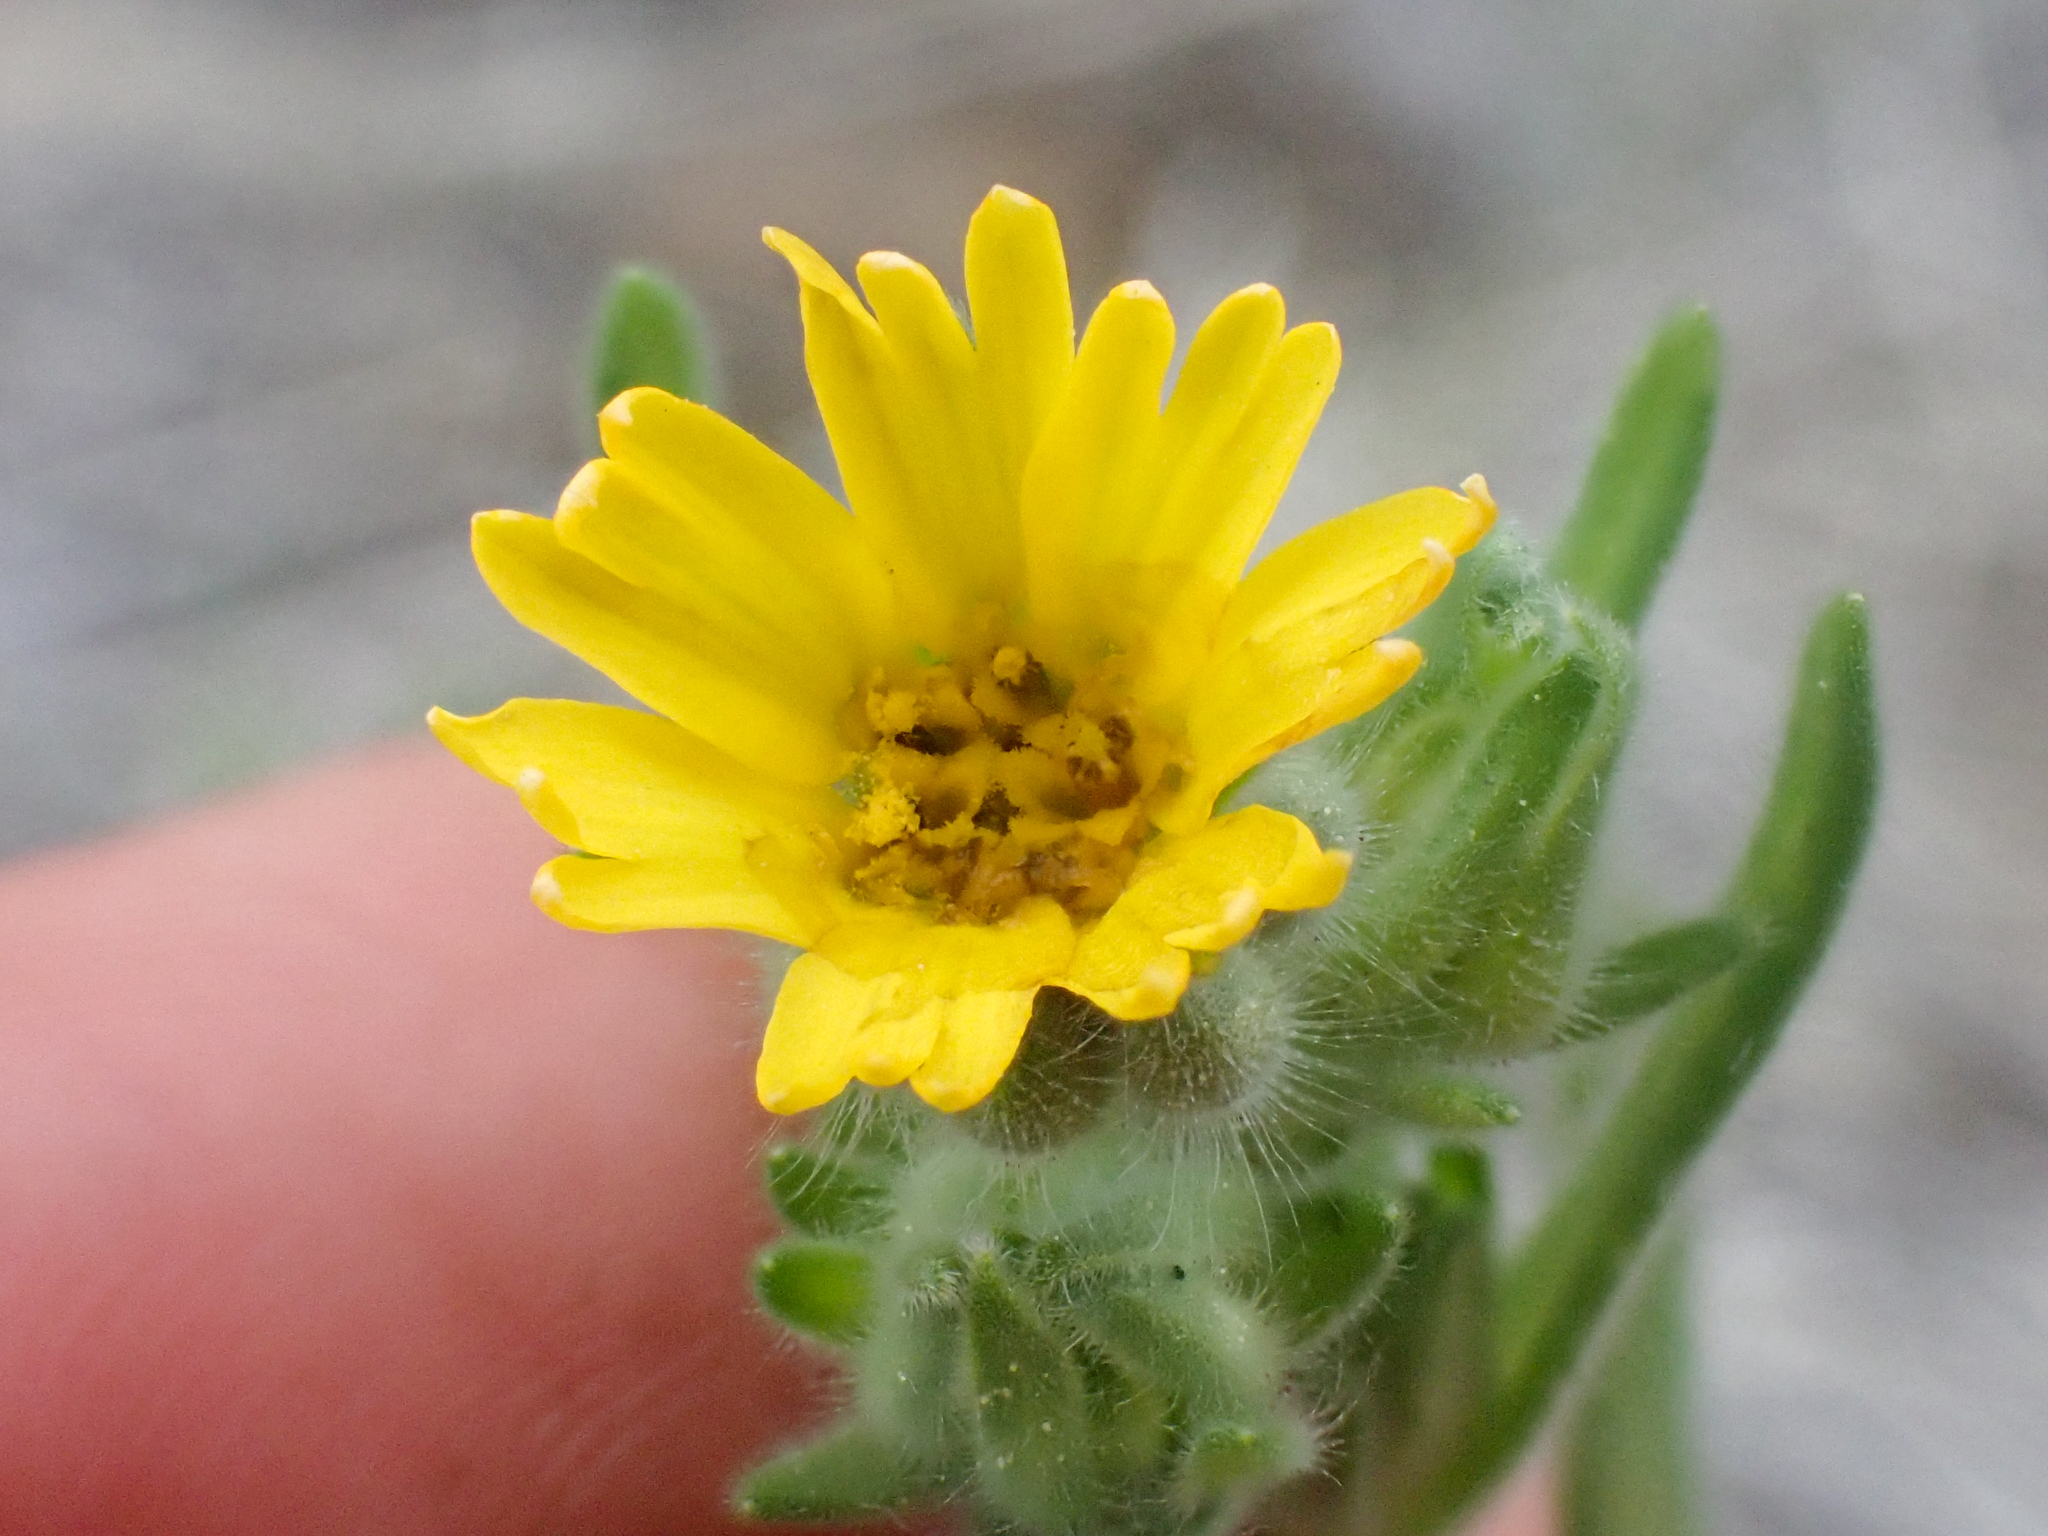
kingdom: Plantae
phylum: Tracheophyta
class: Magnoliopsida
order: Asterales
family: Asteraceae
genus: Madia
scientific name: Madia citriodora
